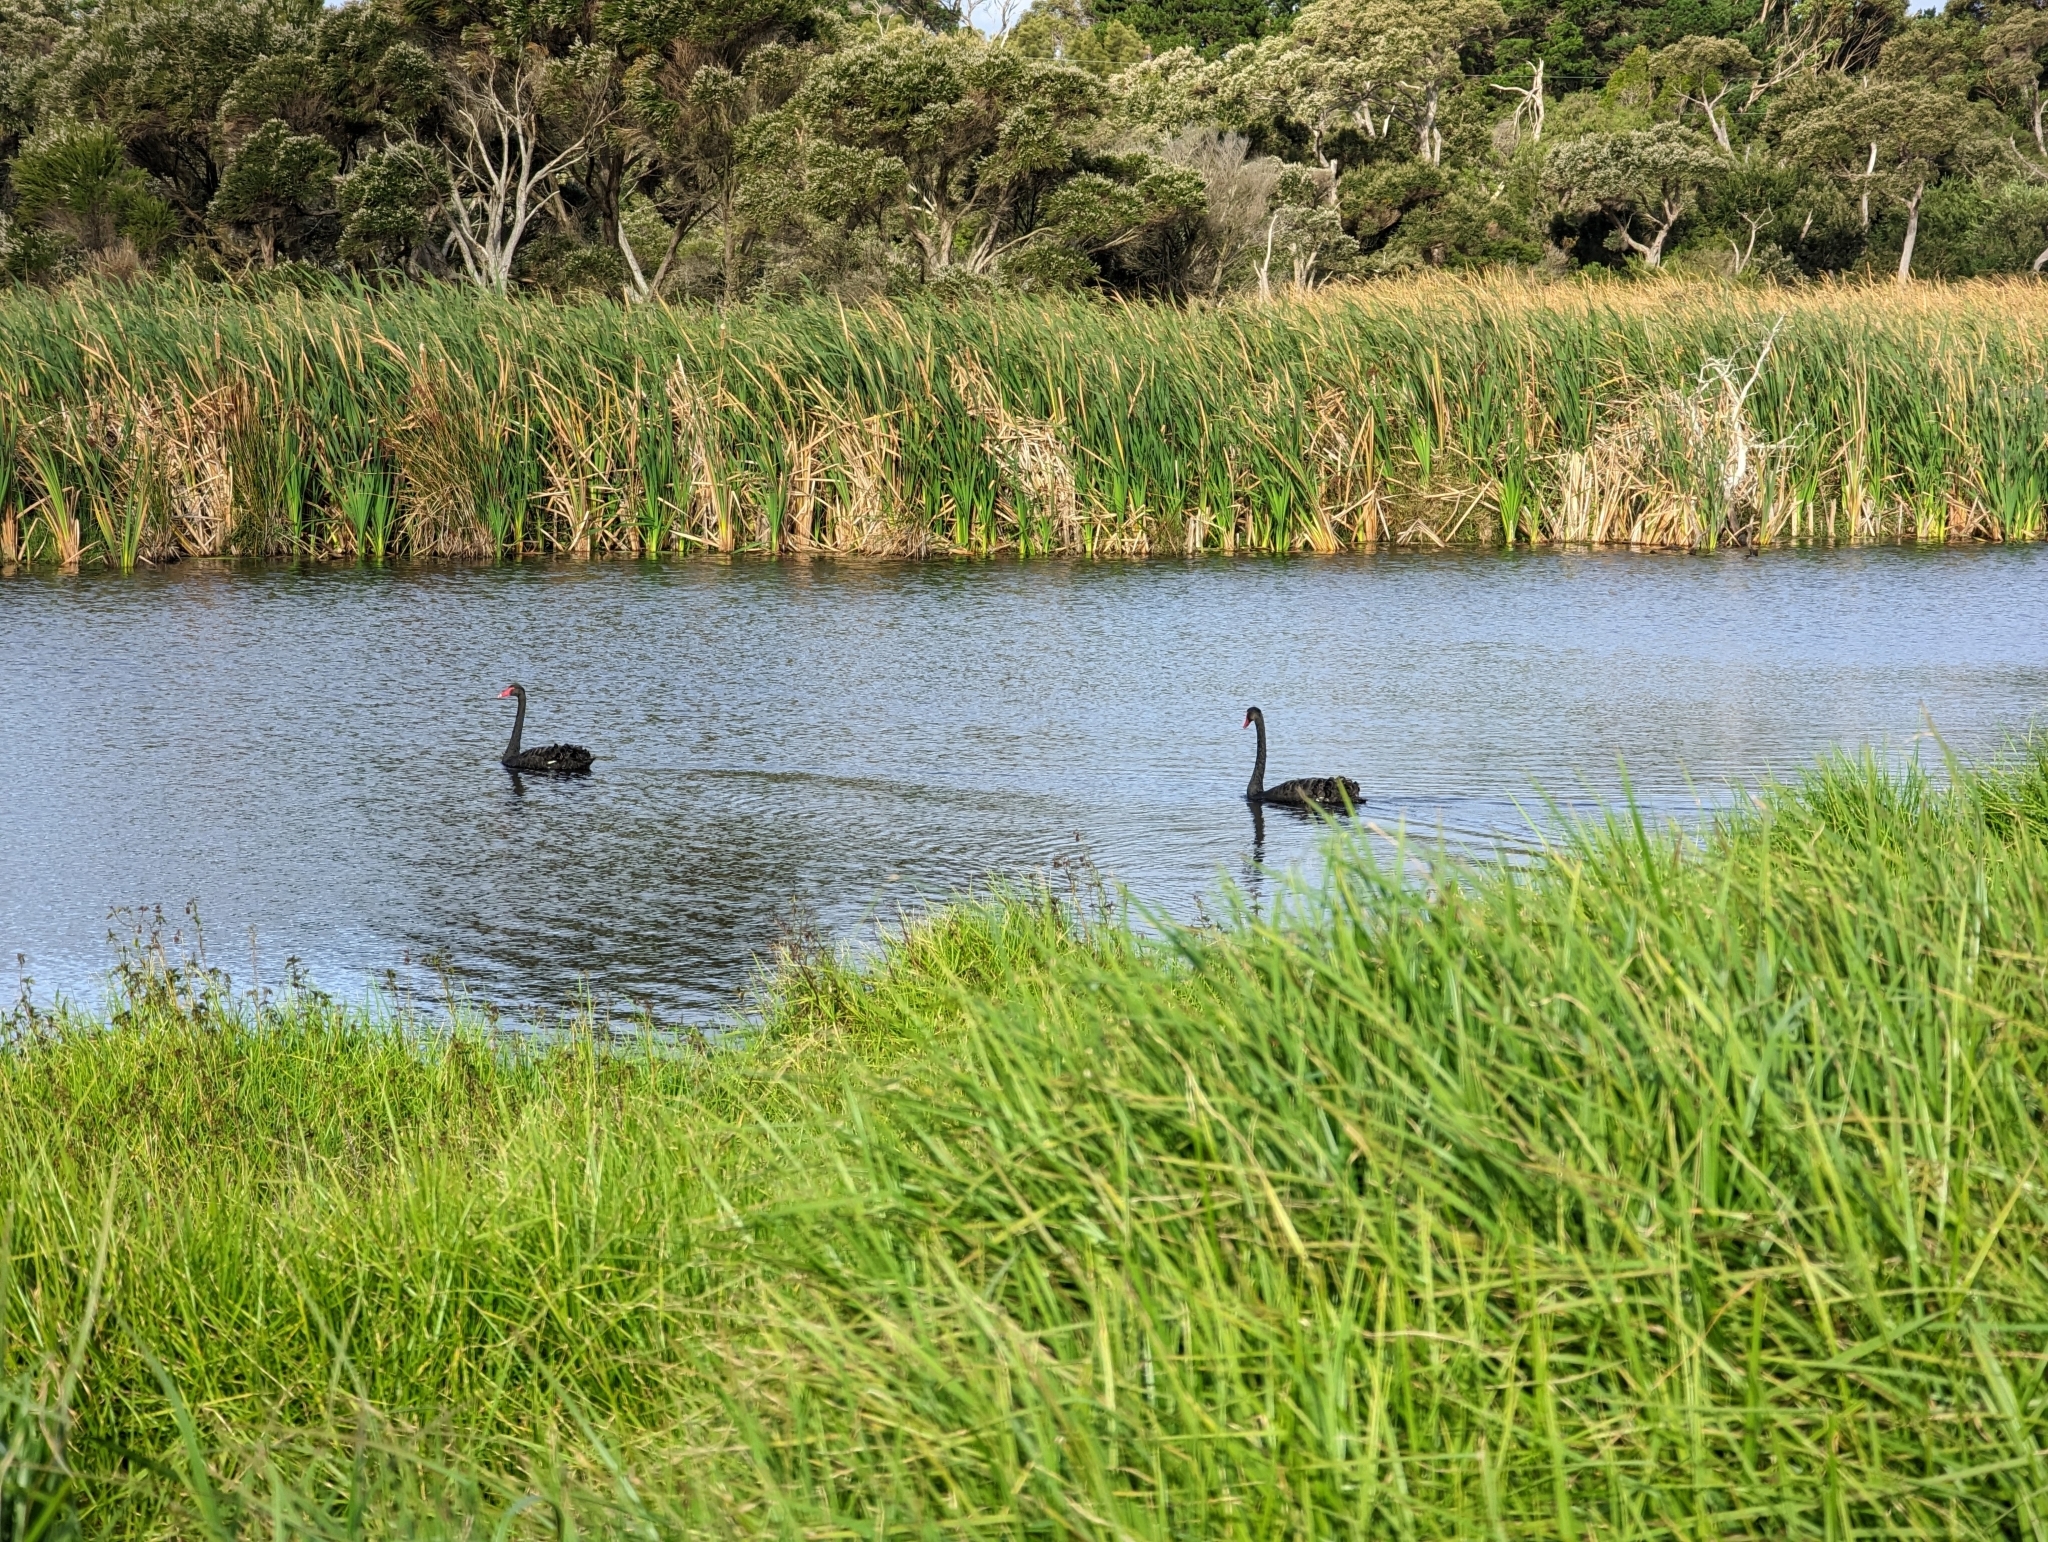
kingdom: Animalia
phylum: Chordata
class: Aves
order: Anseriformes
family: Anatidae
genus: Cygnus
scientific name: Cygnus atratus
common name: Black swan
